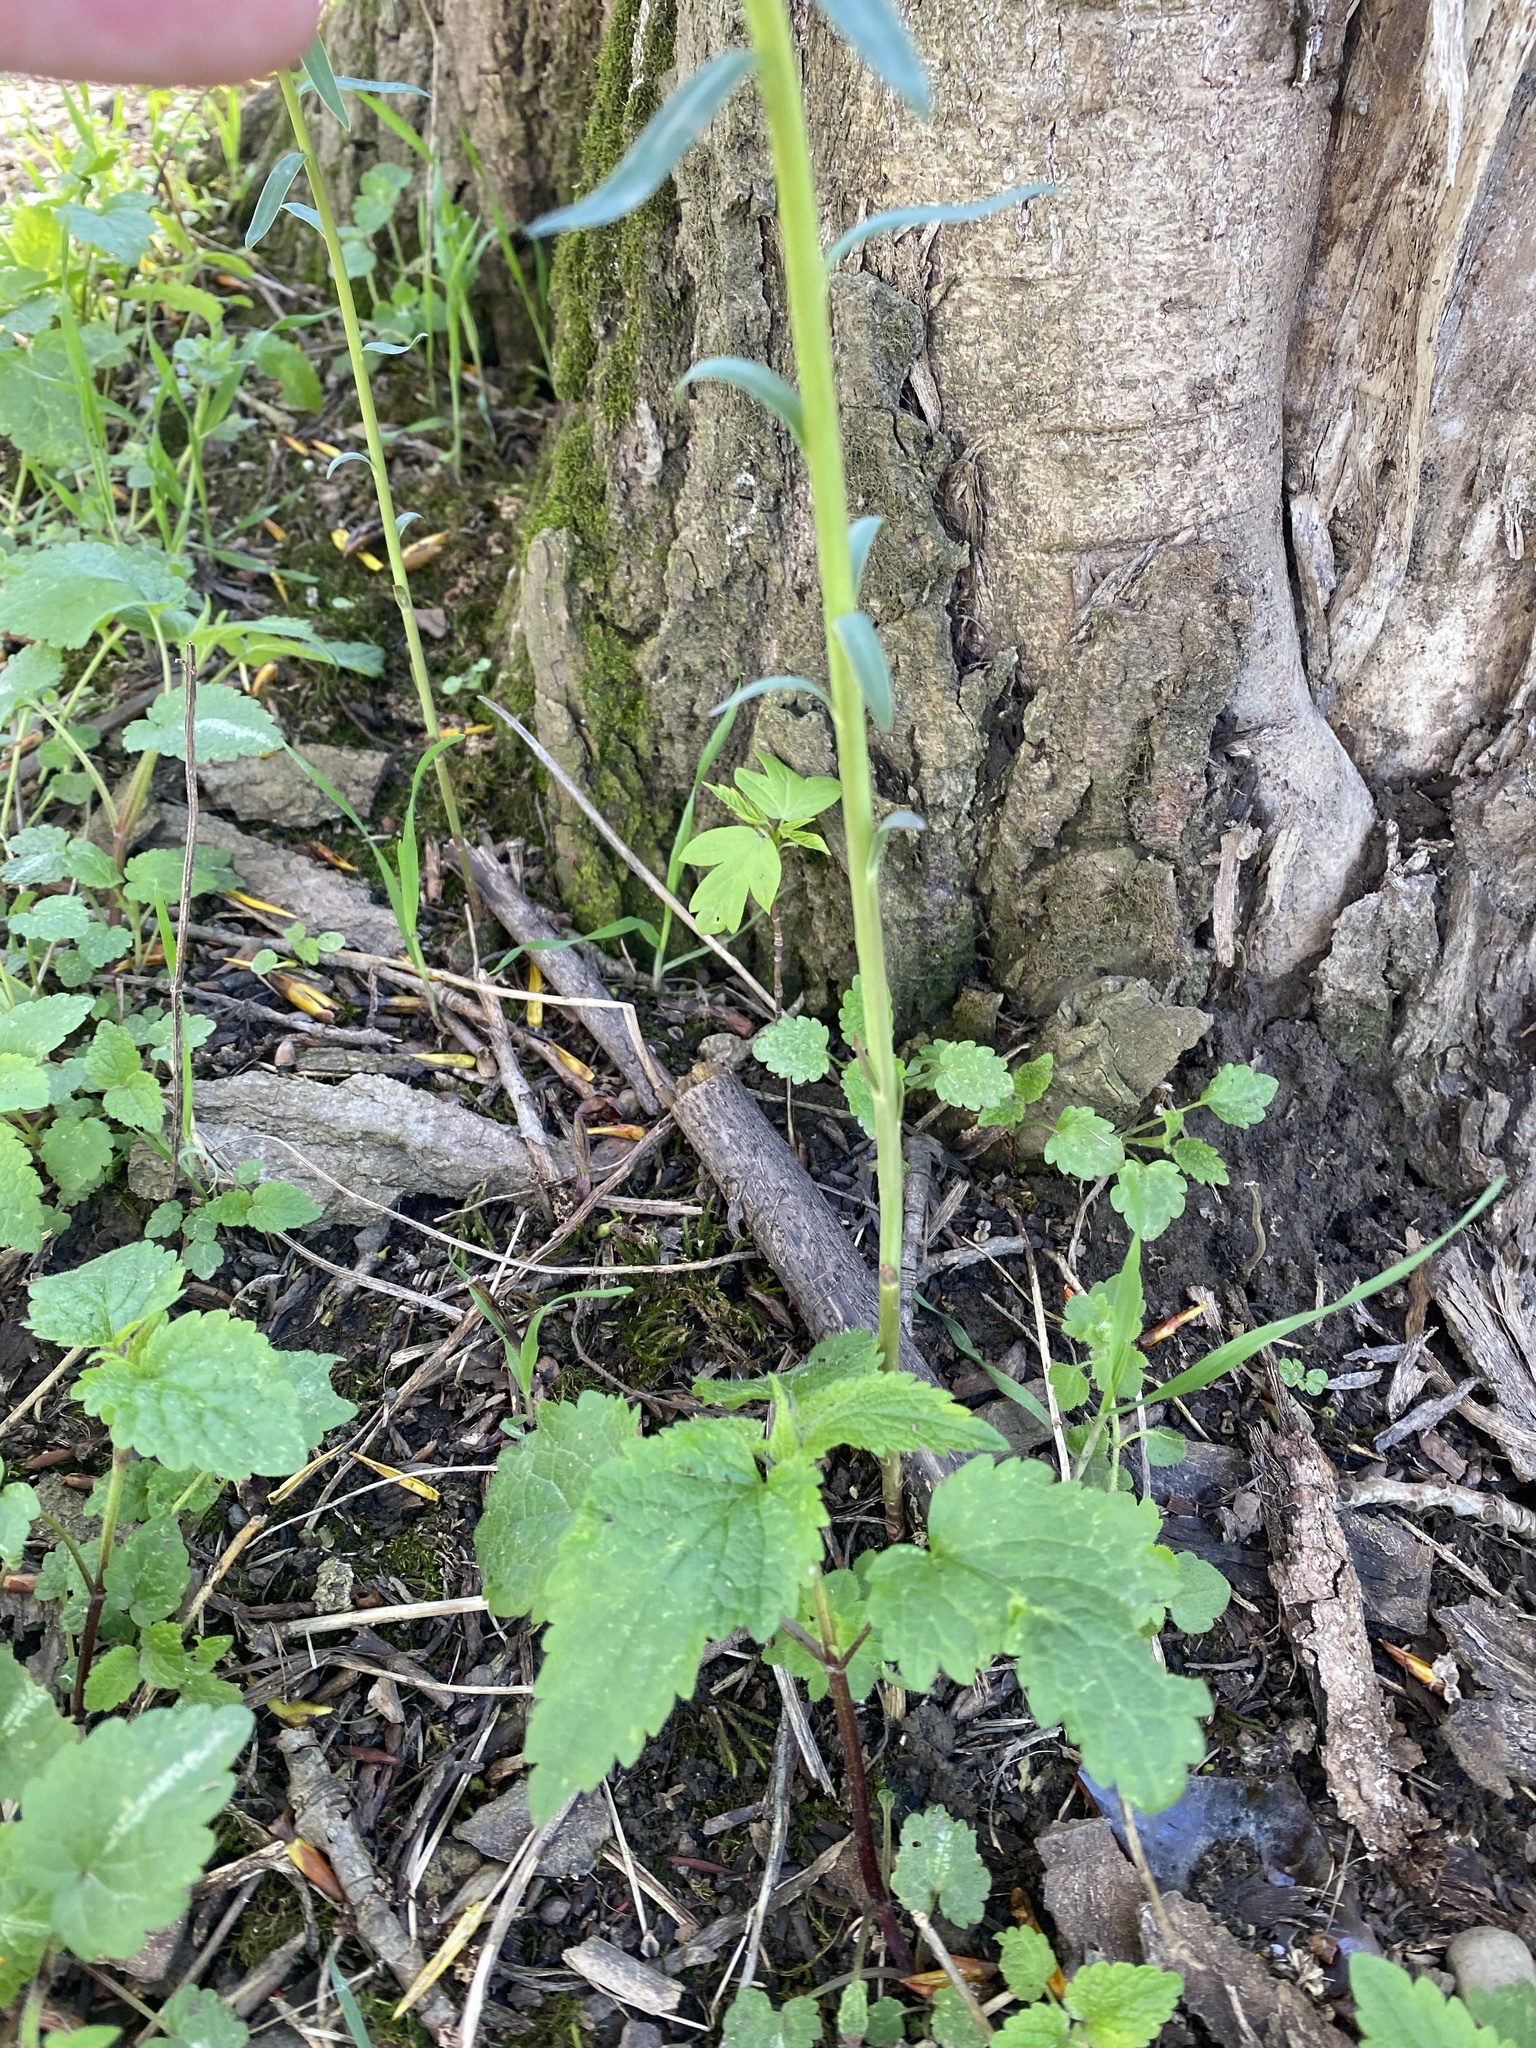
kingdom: Plantae
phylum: Tracheophyta
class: Magnoliopsida
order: Malpighiales
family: Euphorbiaceae
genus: Euphorbia
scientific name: Euphorbia virgata
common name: Leafy spurge
